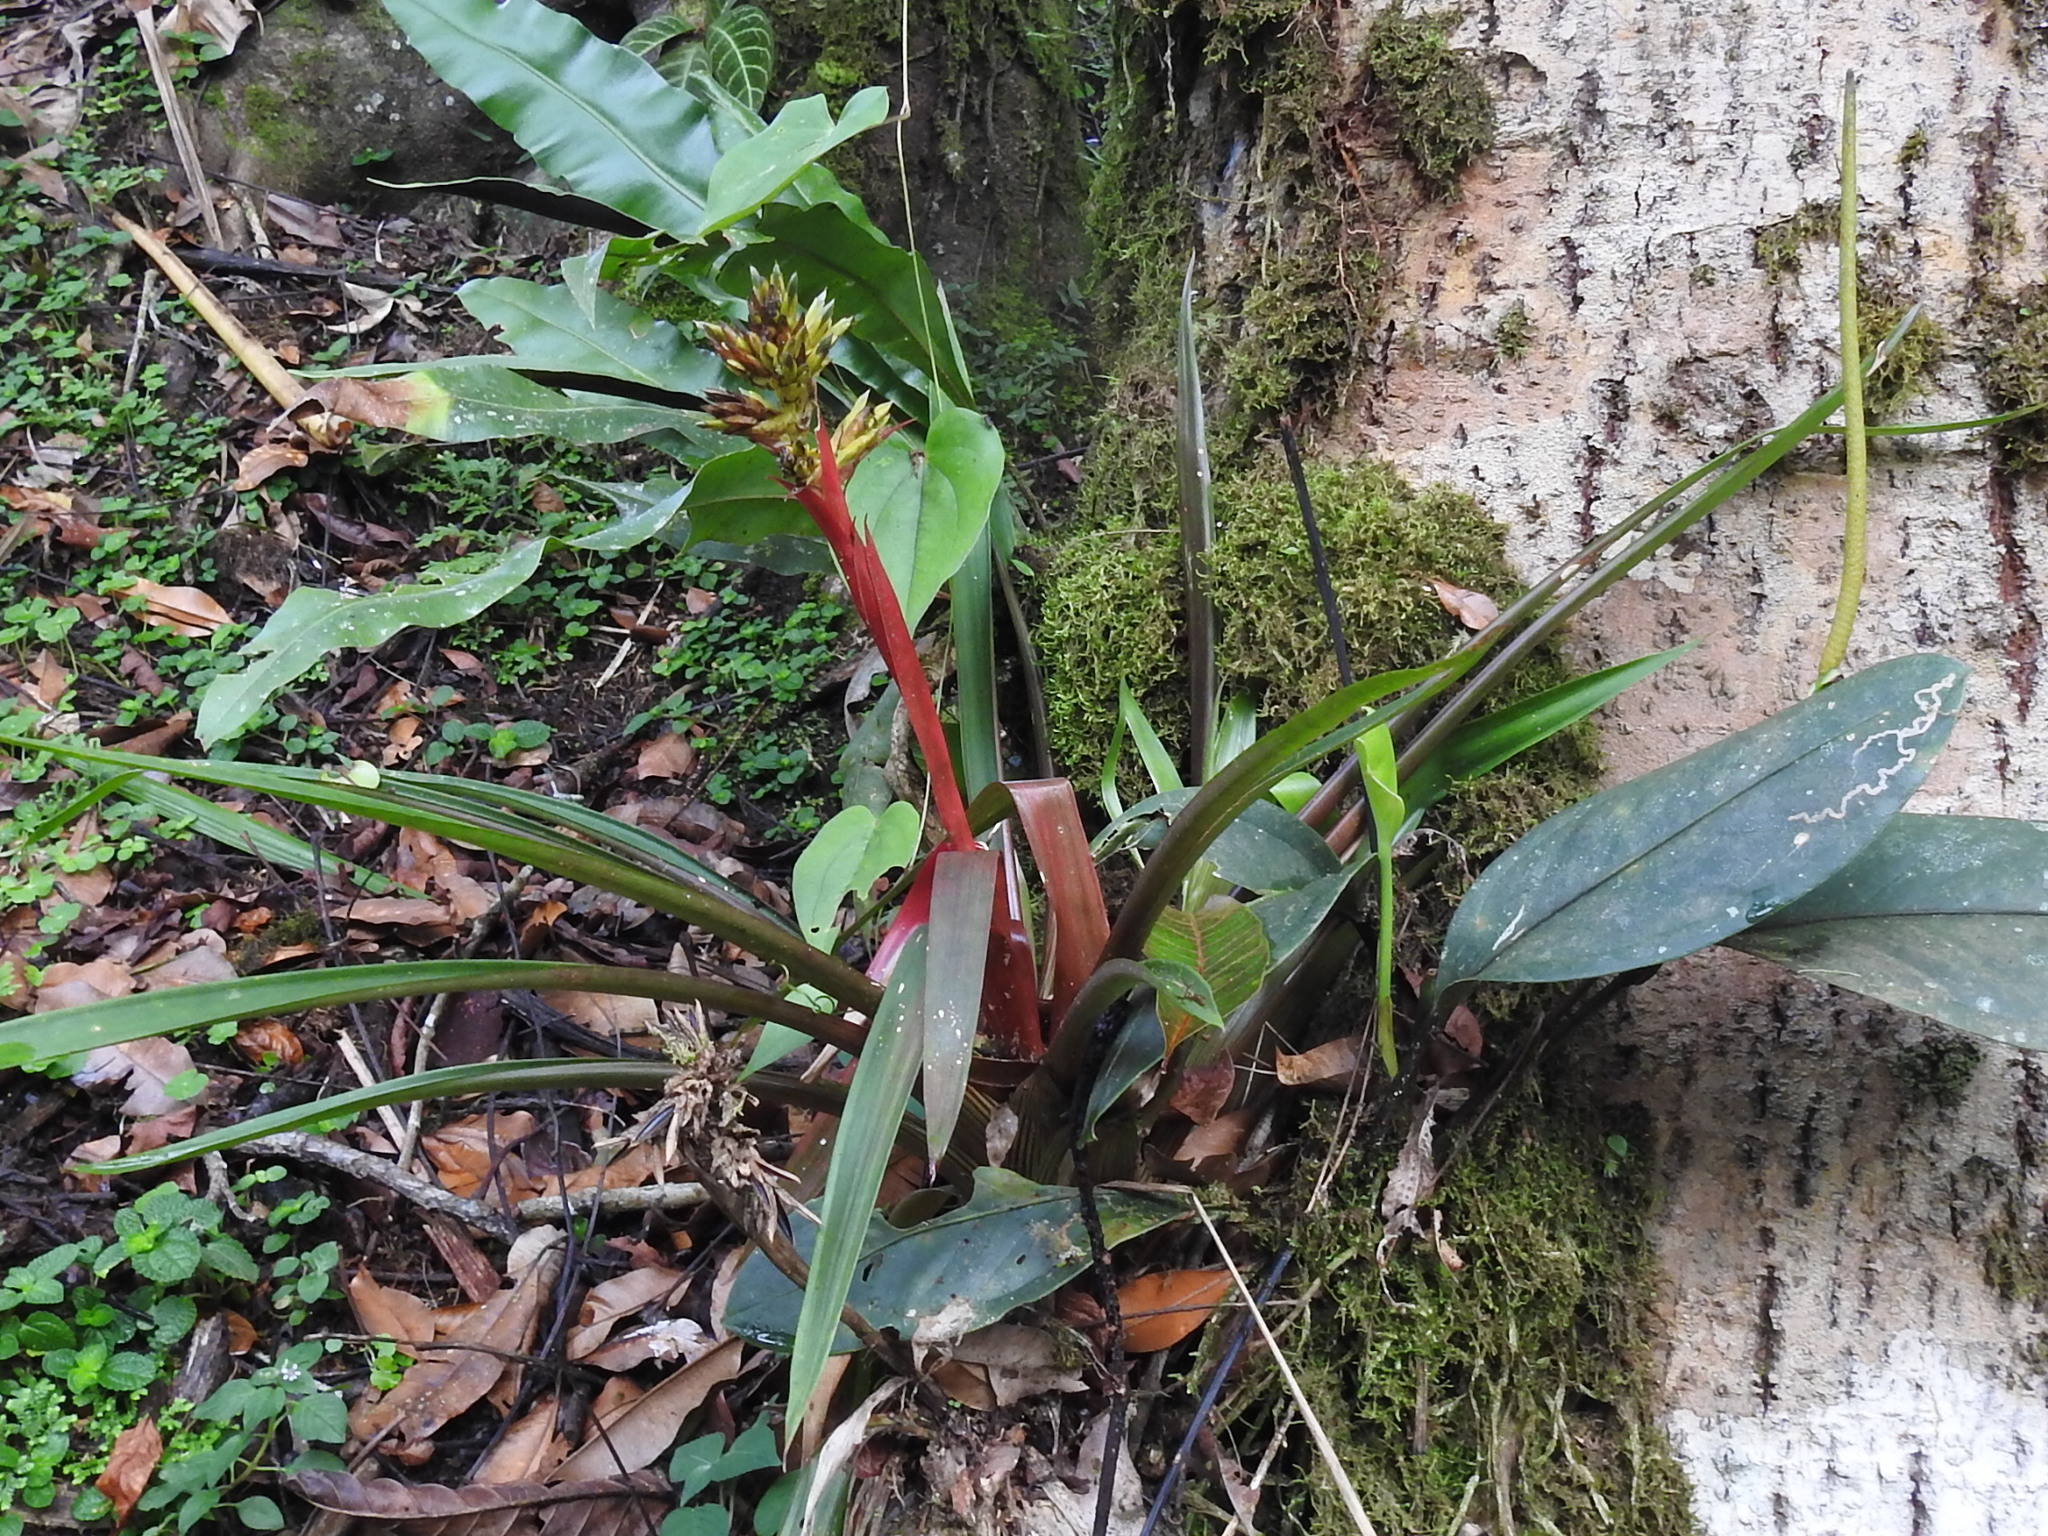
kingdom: Plantae
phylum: Tracheophyta
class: Liliopsida
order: Poales
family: Bromeliaceae
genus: Guzmania
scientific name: Guzmania zahnii
